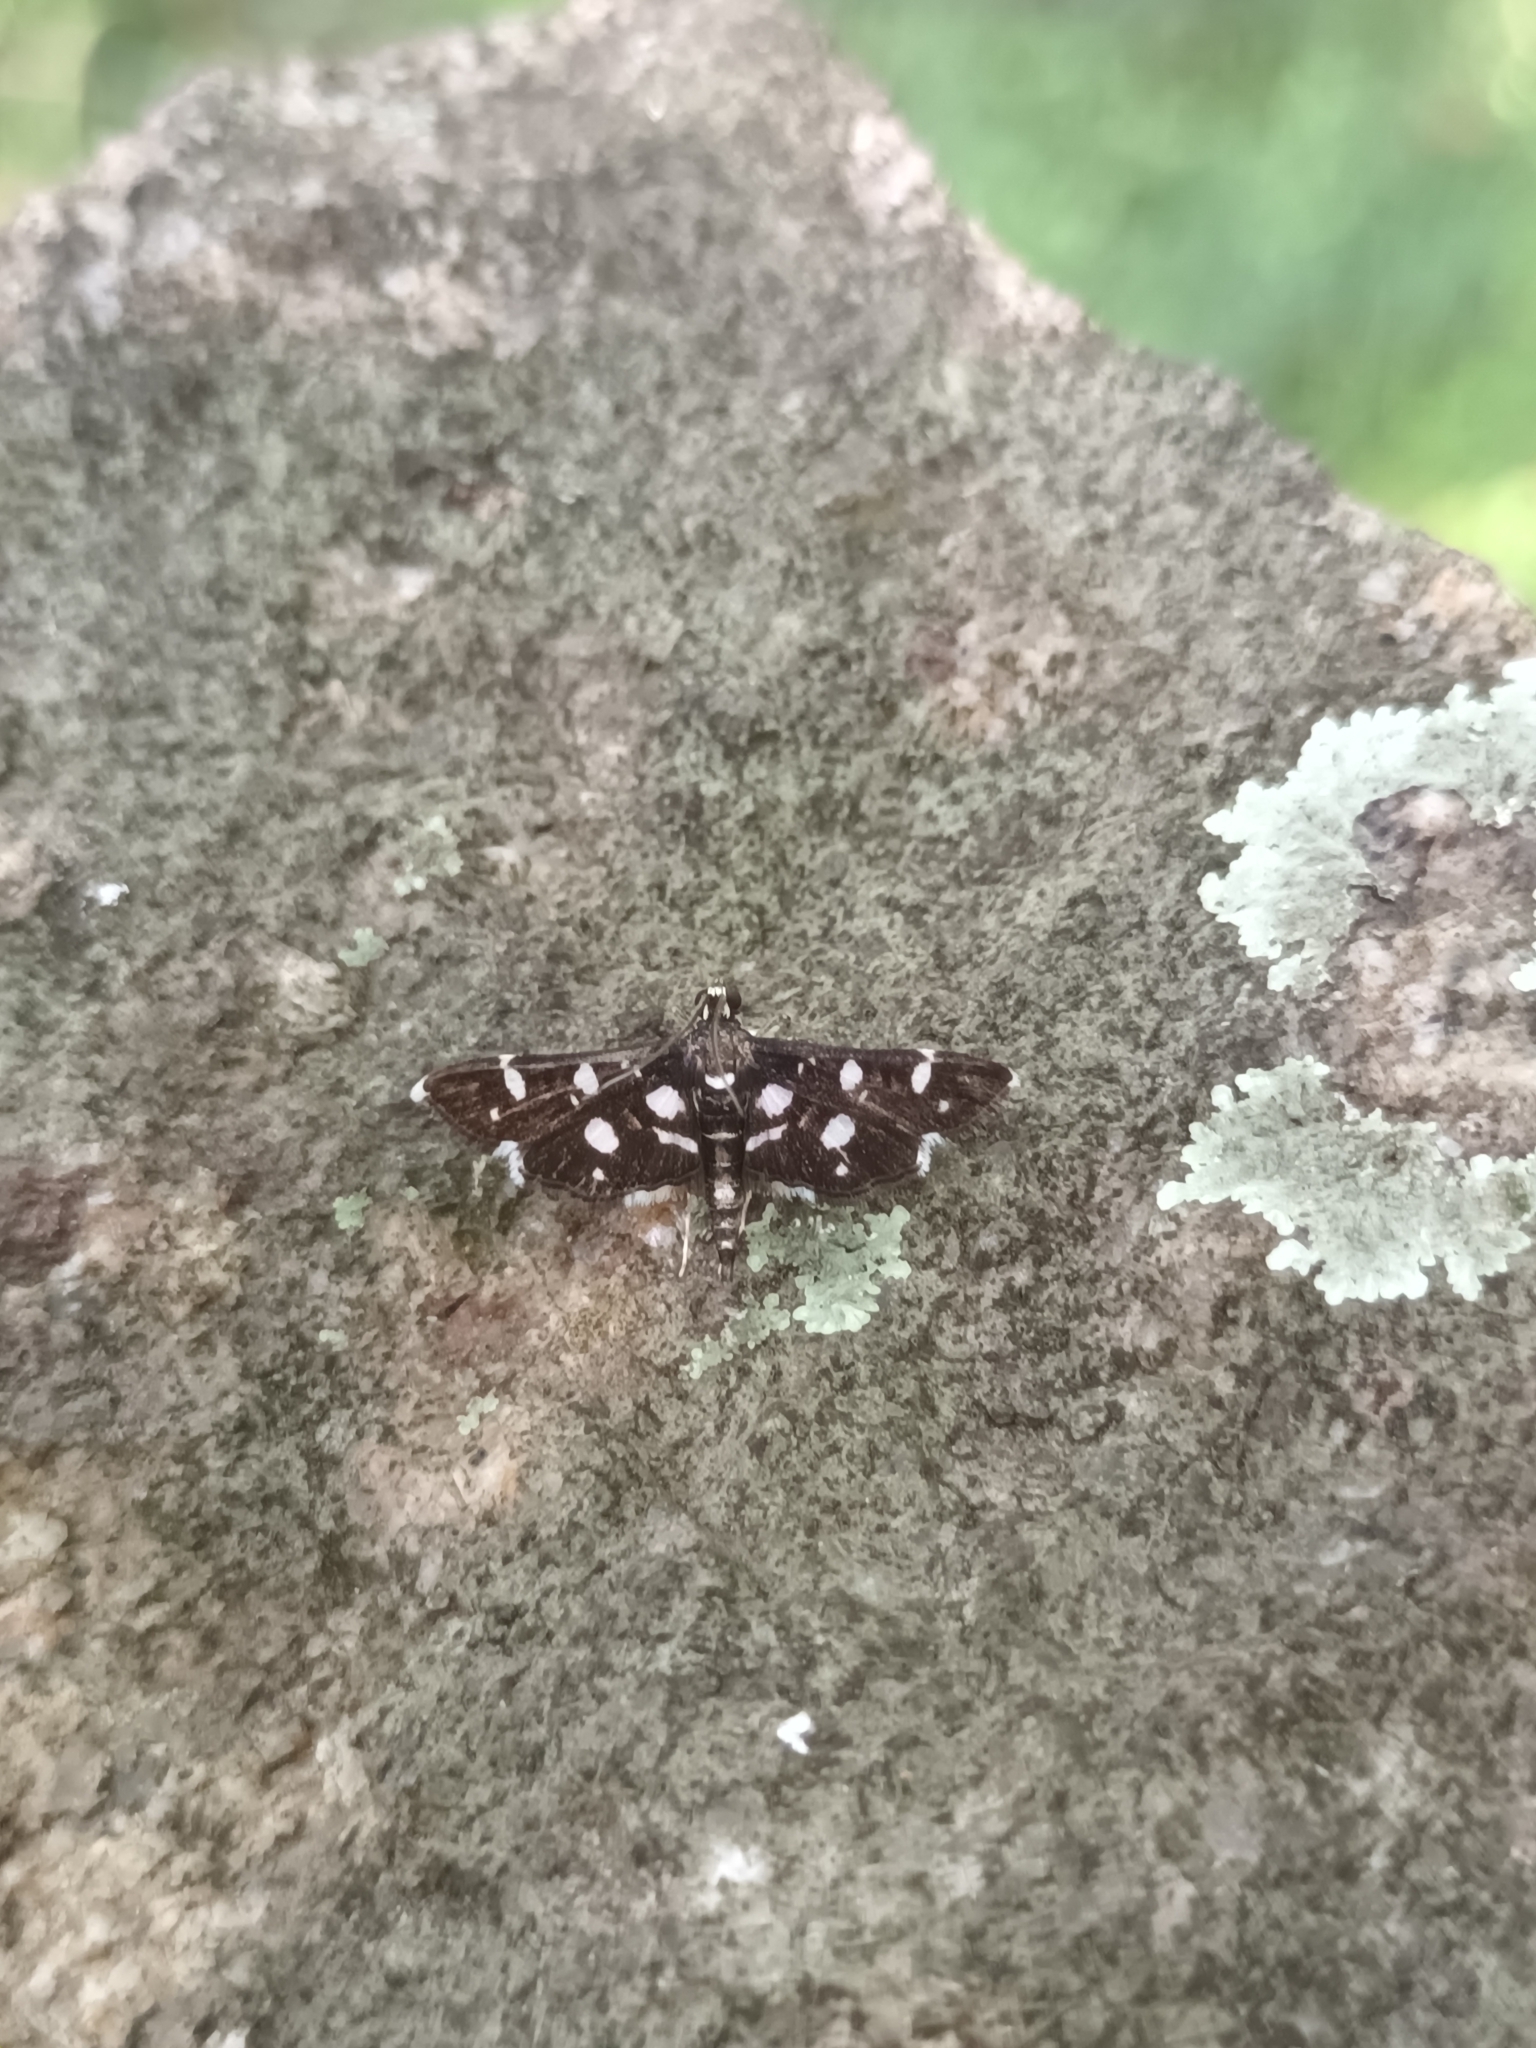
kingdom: Animalia
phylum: Arthropoda
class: Insecta
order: Lepidoptera
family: Crambidae
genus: Bocchoris
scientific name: Bocchoris inspersalis
